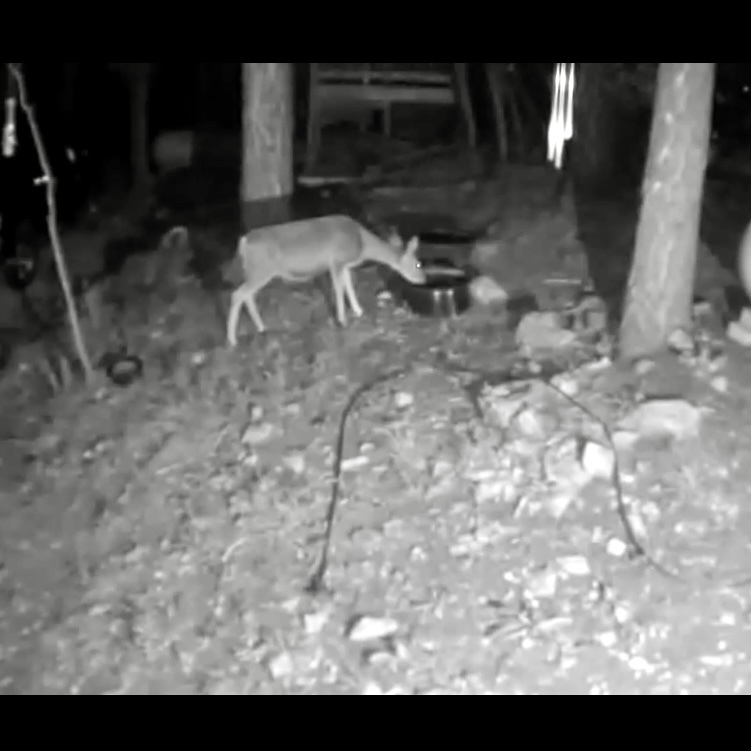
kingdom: Animalia
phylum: Chordata
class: Mammalia
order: Artiodactyla
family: Cervidae
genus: Odocoileus
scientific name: Odocoileus hemionus
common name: Mule deer
